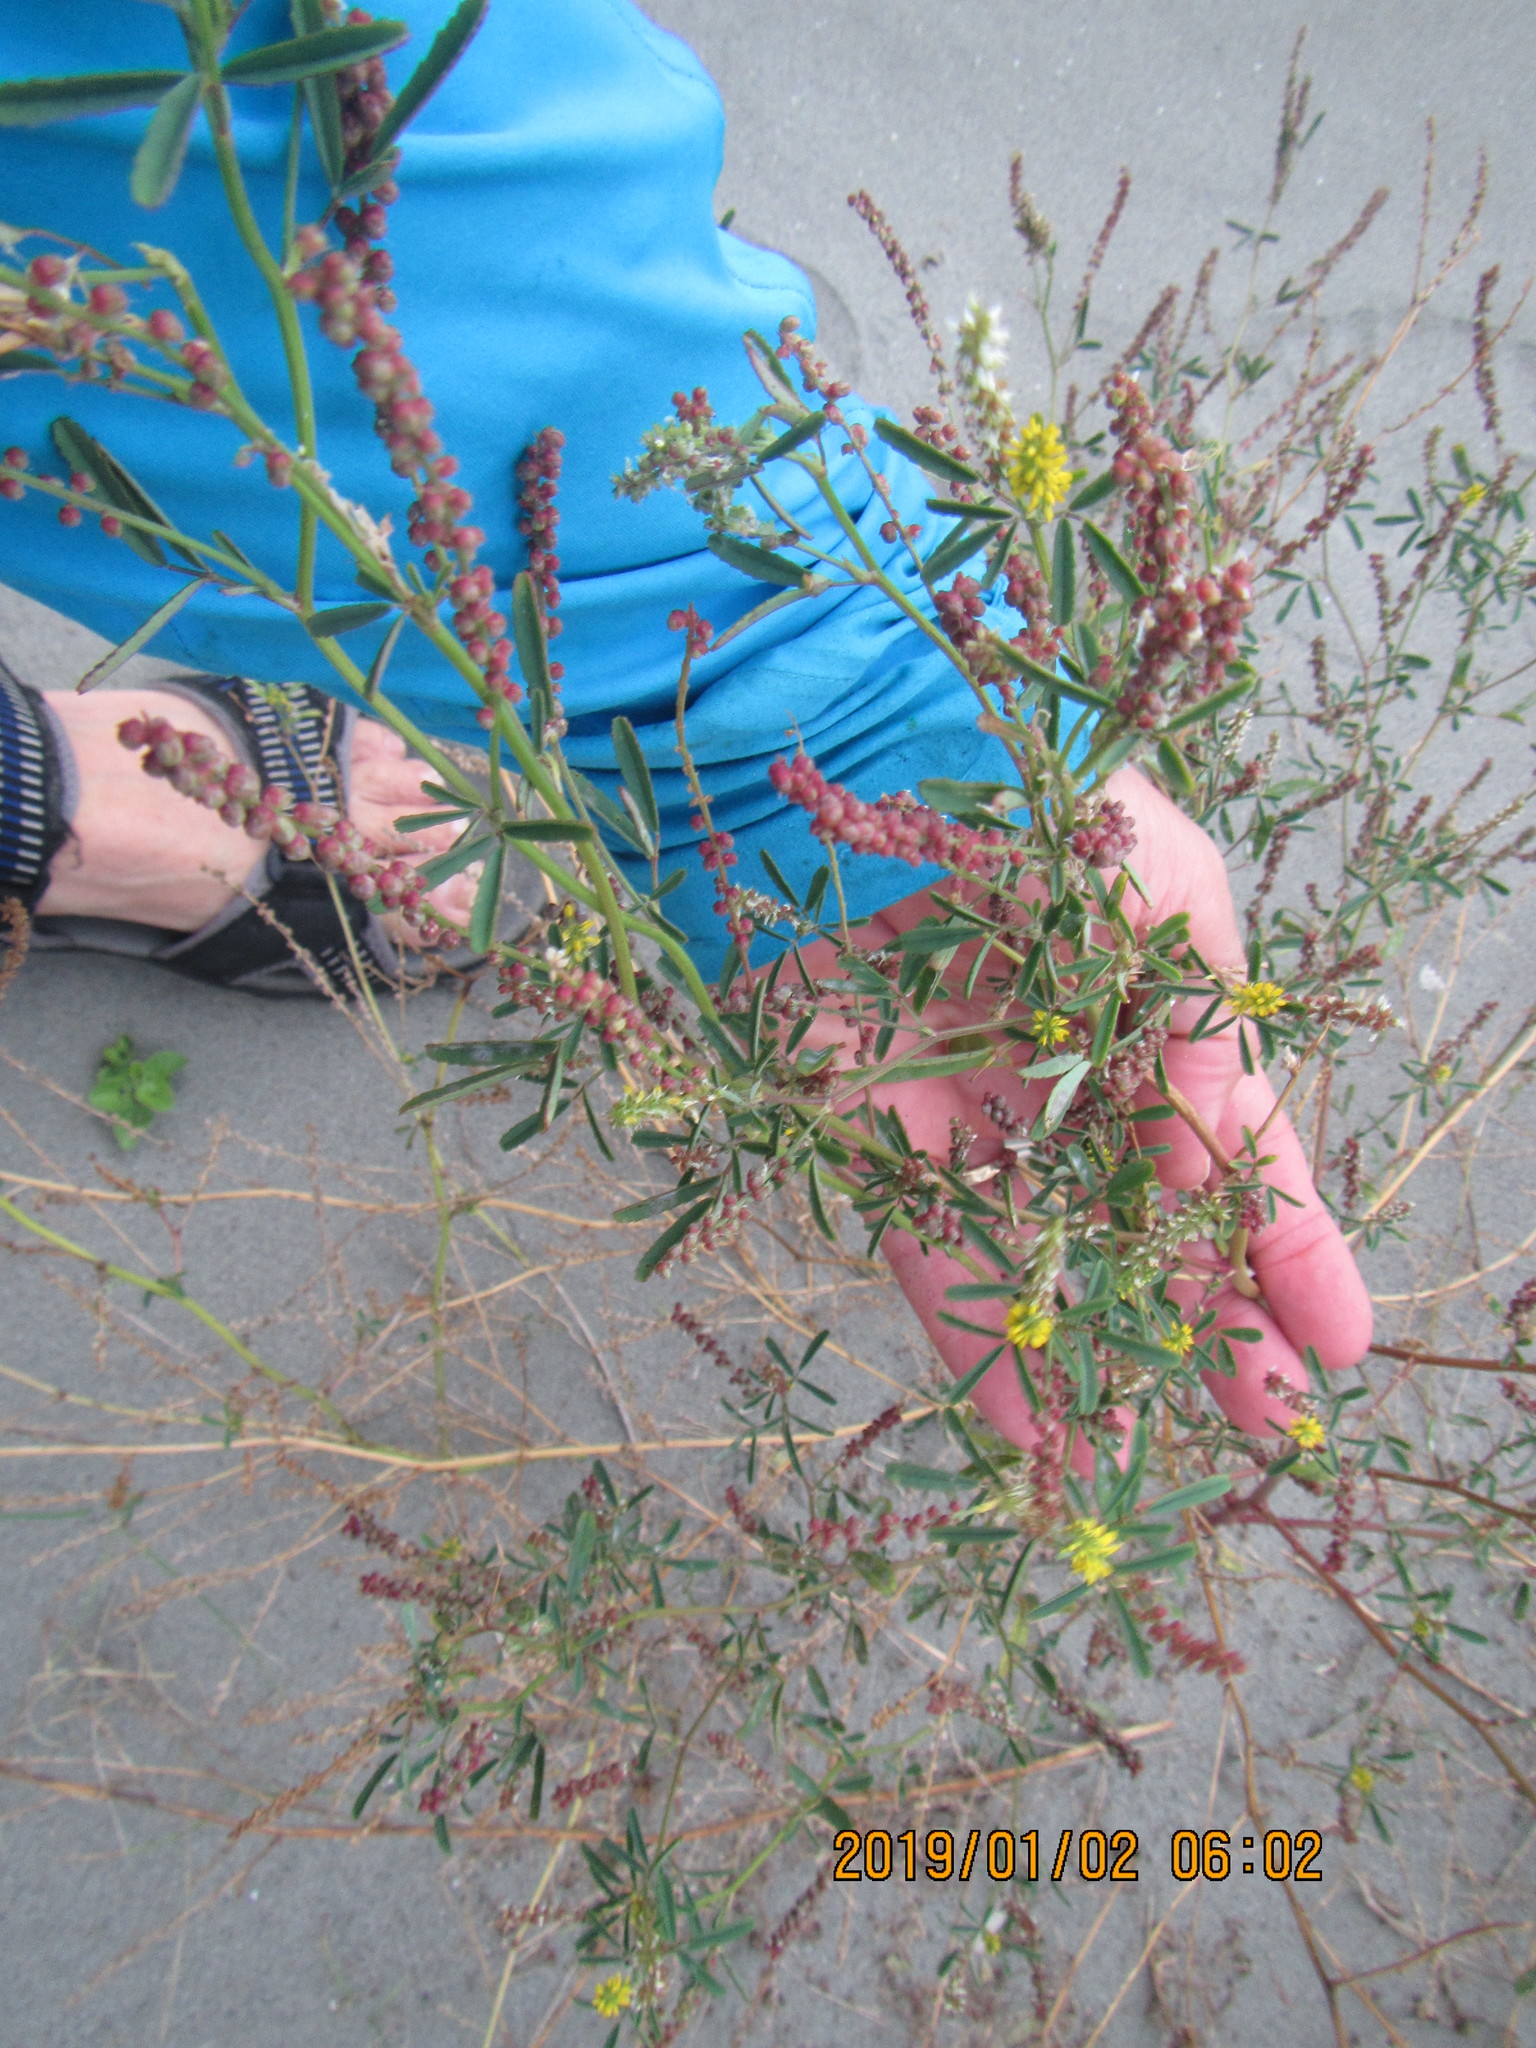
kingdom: Plantae
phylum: Tracheophyta
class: Magnoliopsida
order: Fabales
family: Fabaceae
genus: Melilotus
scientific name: Melilotus indicus
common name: Small melilot
